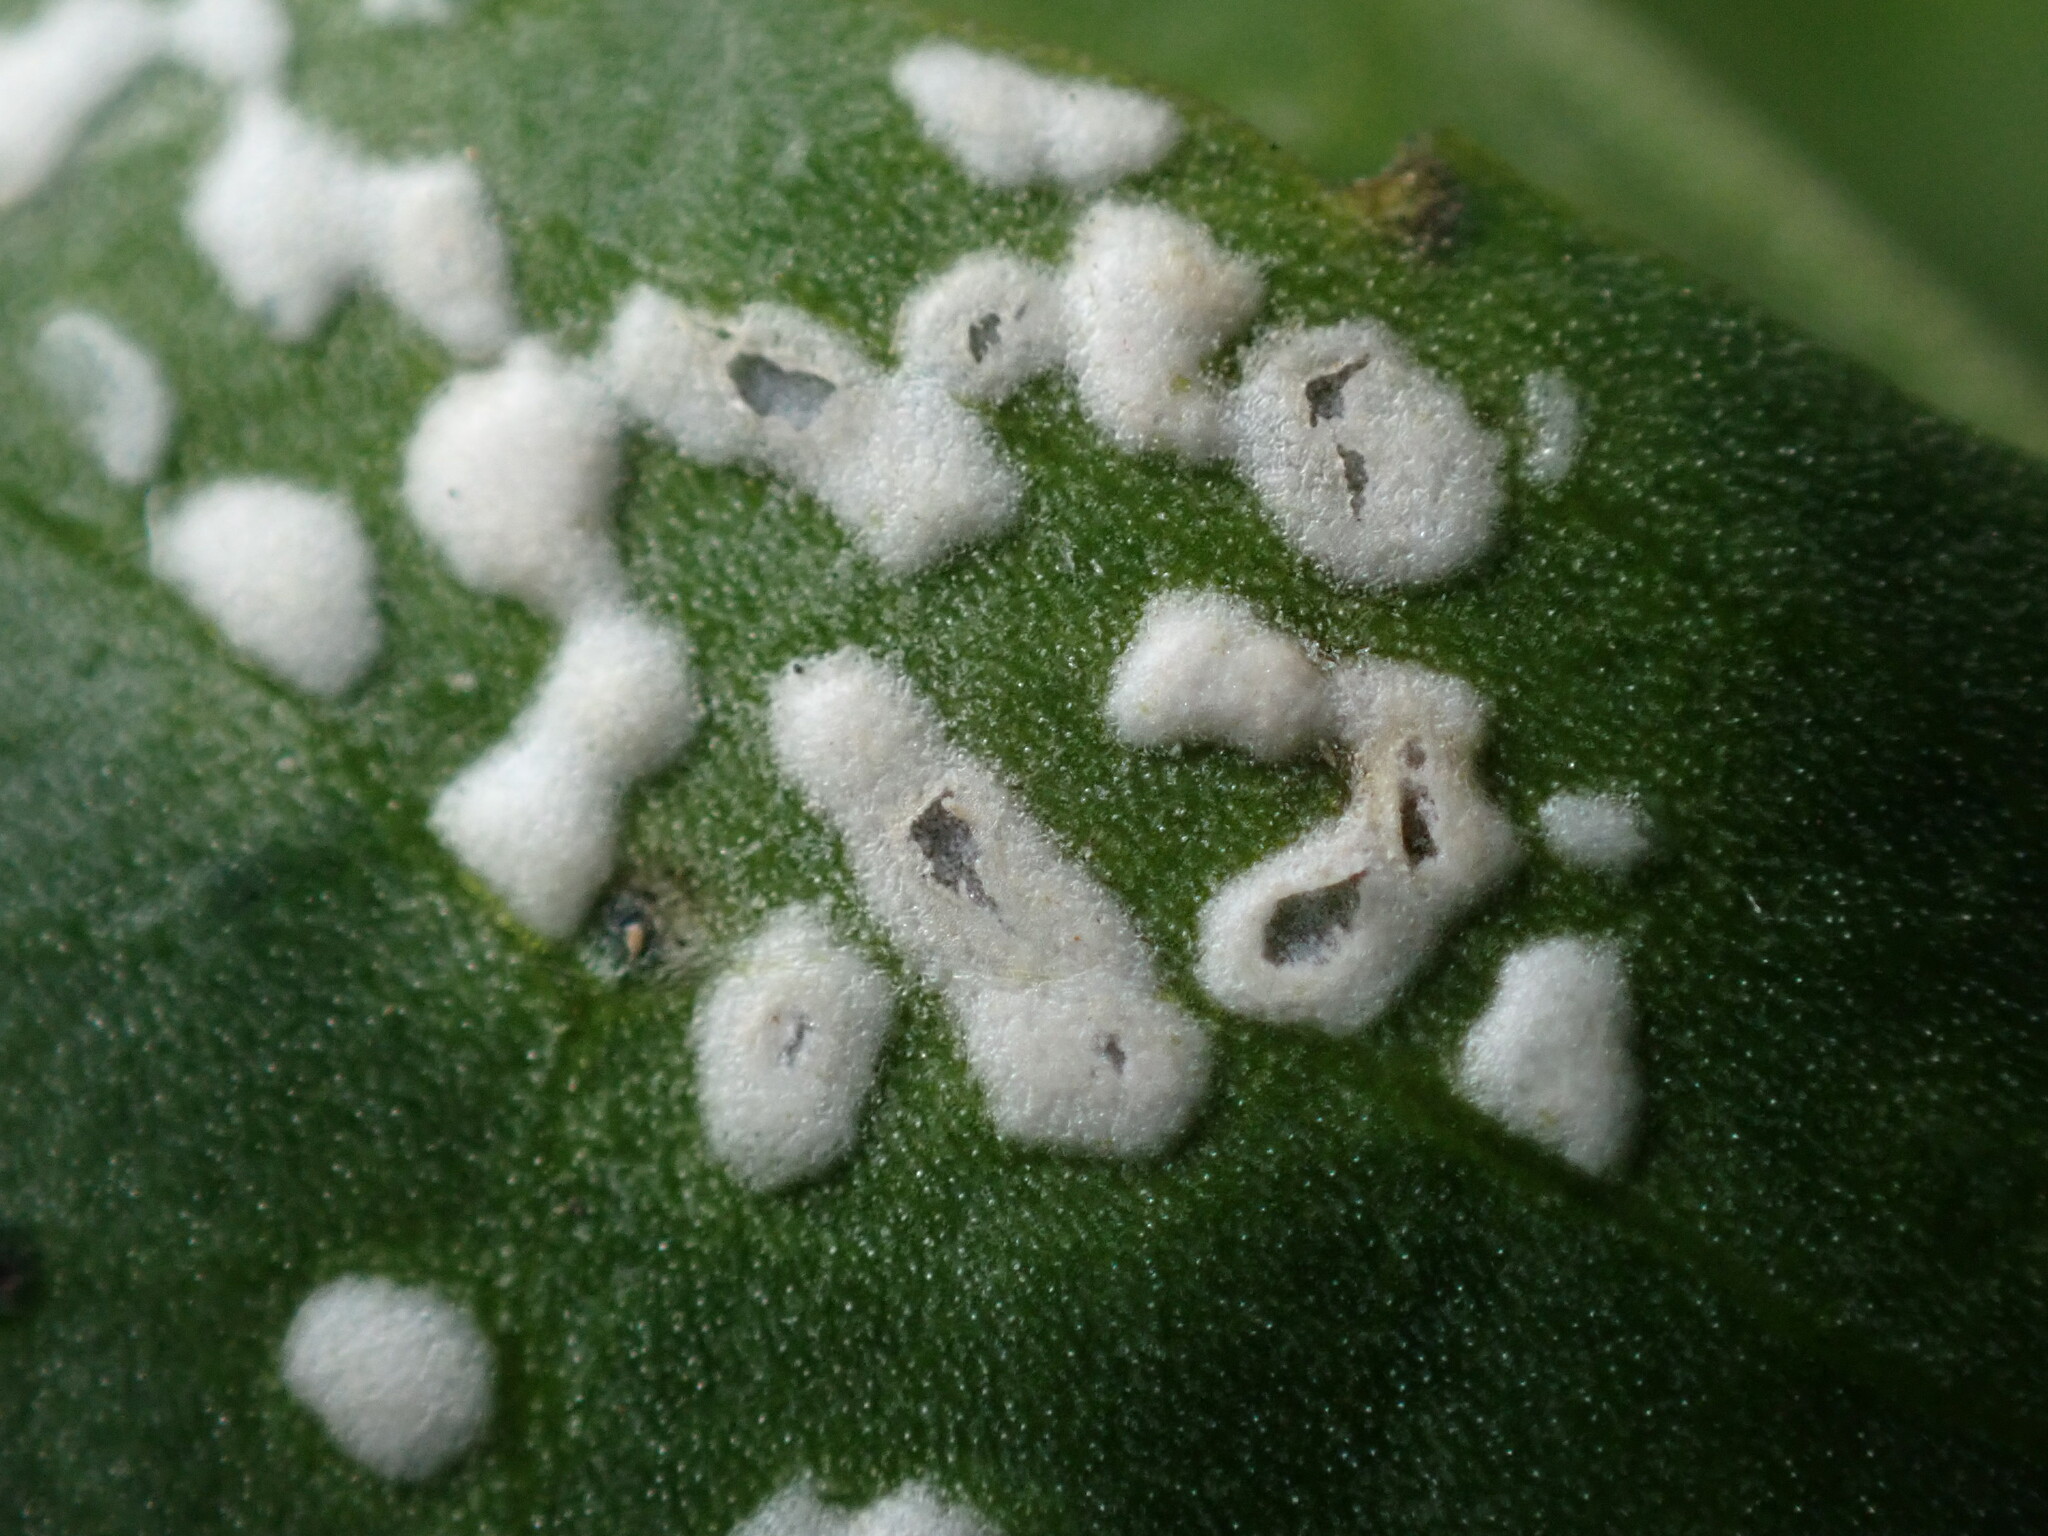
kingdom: Chromista
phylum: Oomycota
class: Peronosporea
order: Albuginales
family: Albuginaceae
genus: Albugo
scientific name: Albugo lepidii
